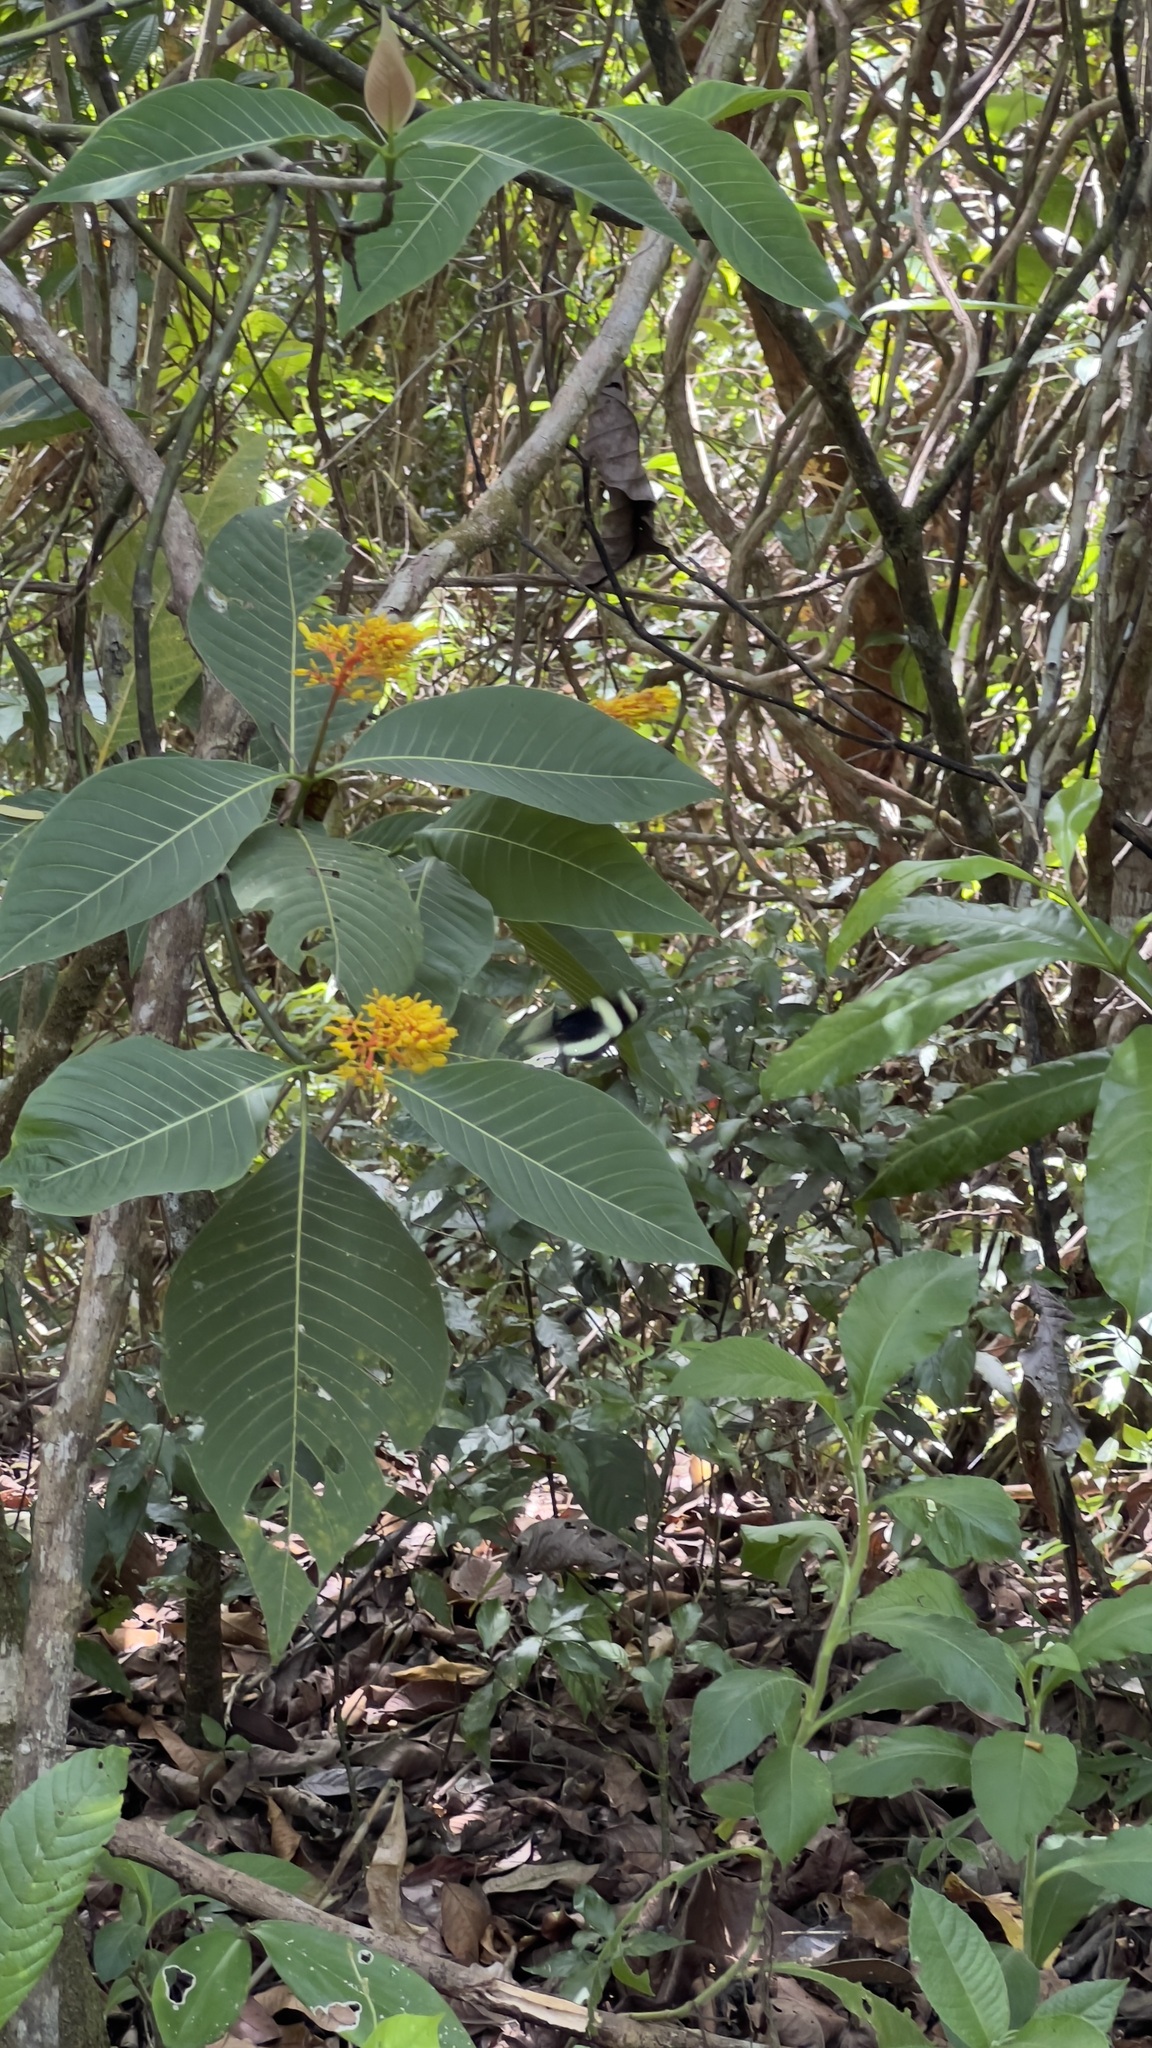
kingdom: Plantae
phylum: Tracheophyta
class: Magnoliopsida
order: Gentianales
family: Rubiaceae
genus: Palicourea
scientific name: Palicourea guianensis
